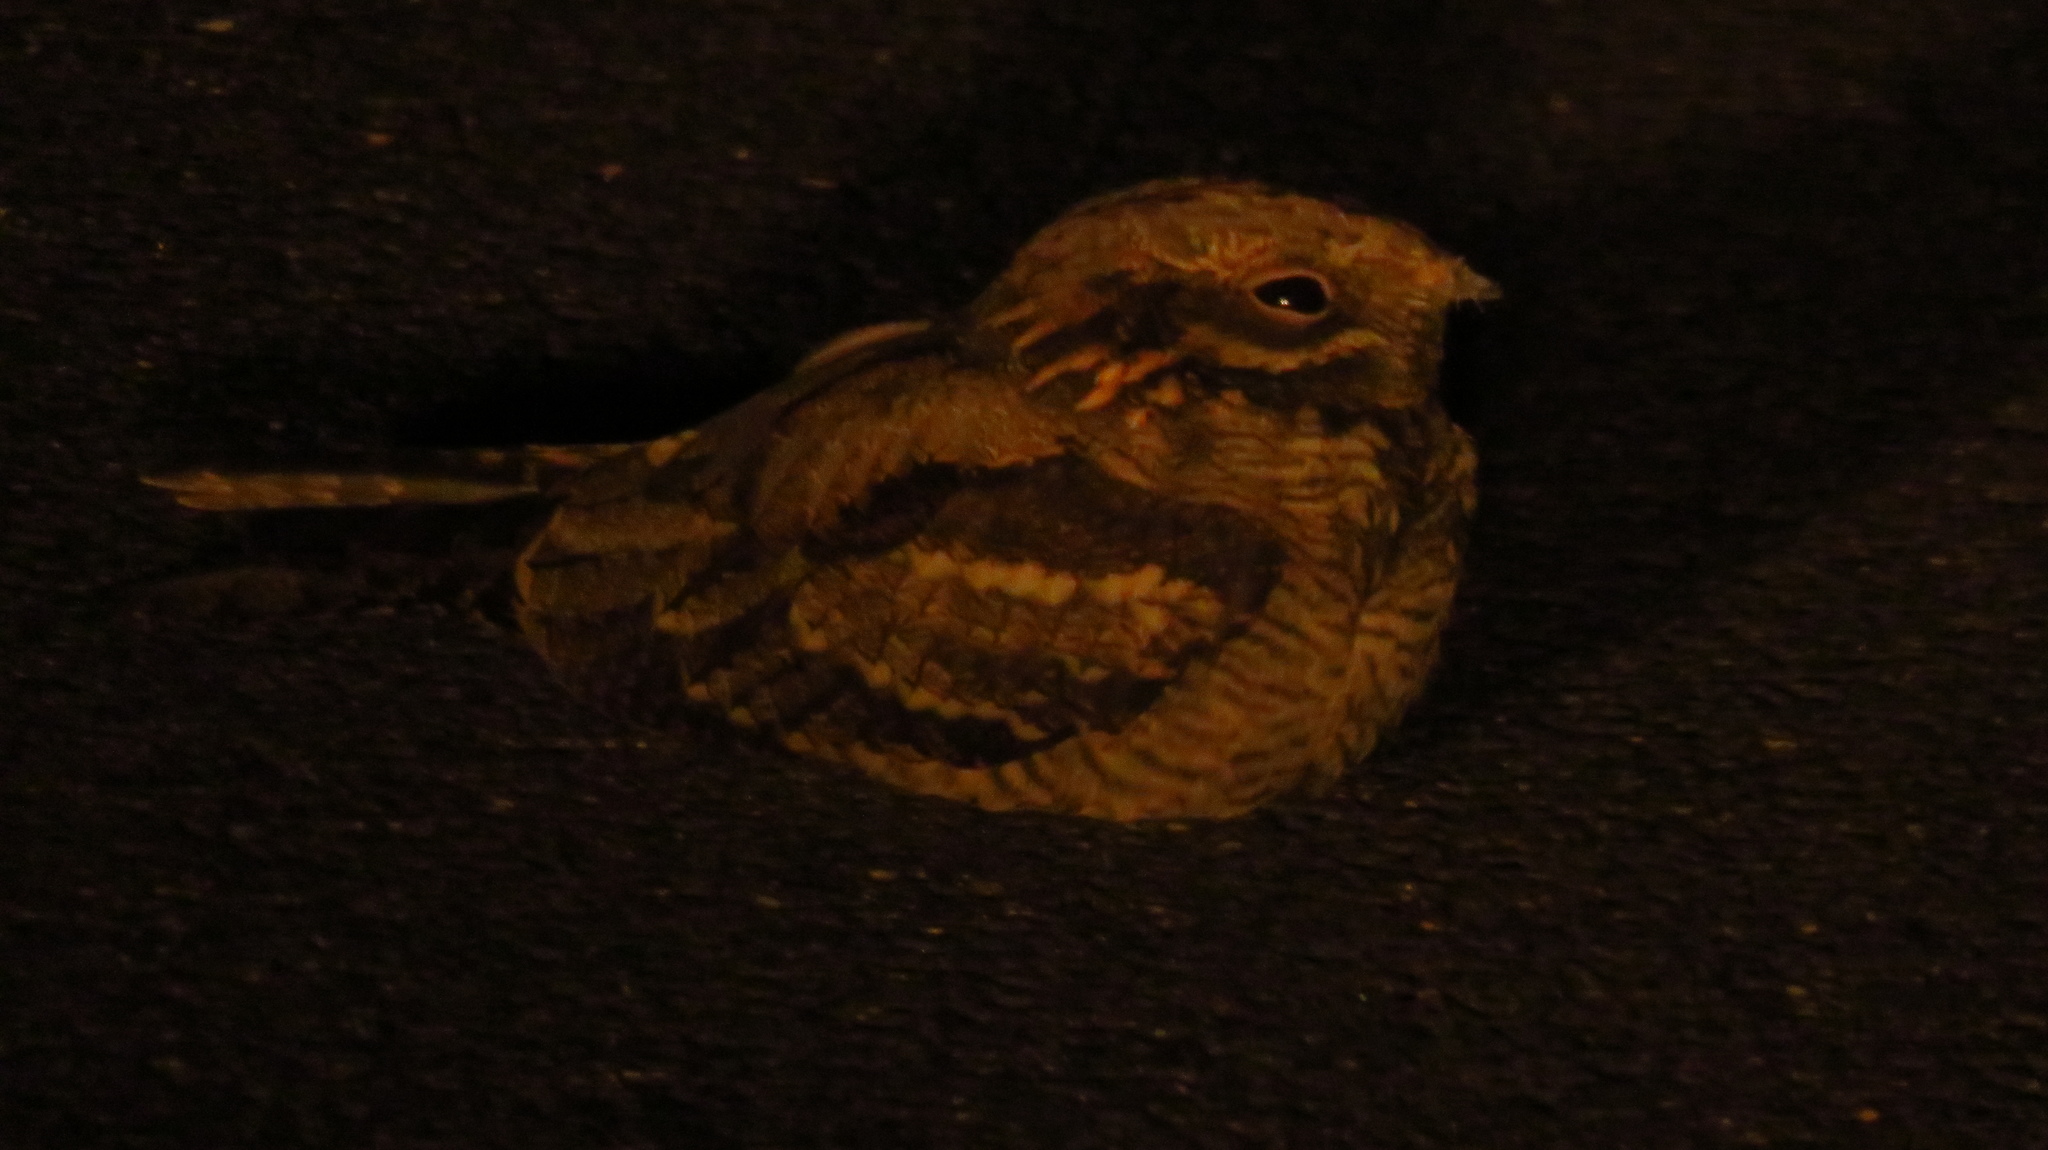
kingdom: Animalia
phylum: Chordata
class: Aves
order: Caprimulgiformes
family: Caprimulgidae
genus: Caprimulgus
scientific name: Caprimulgus europaeus
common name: European nightjar
